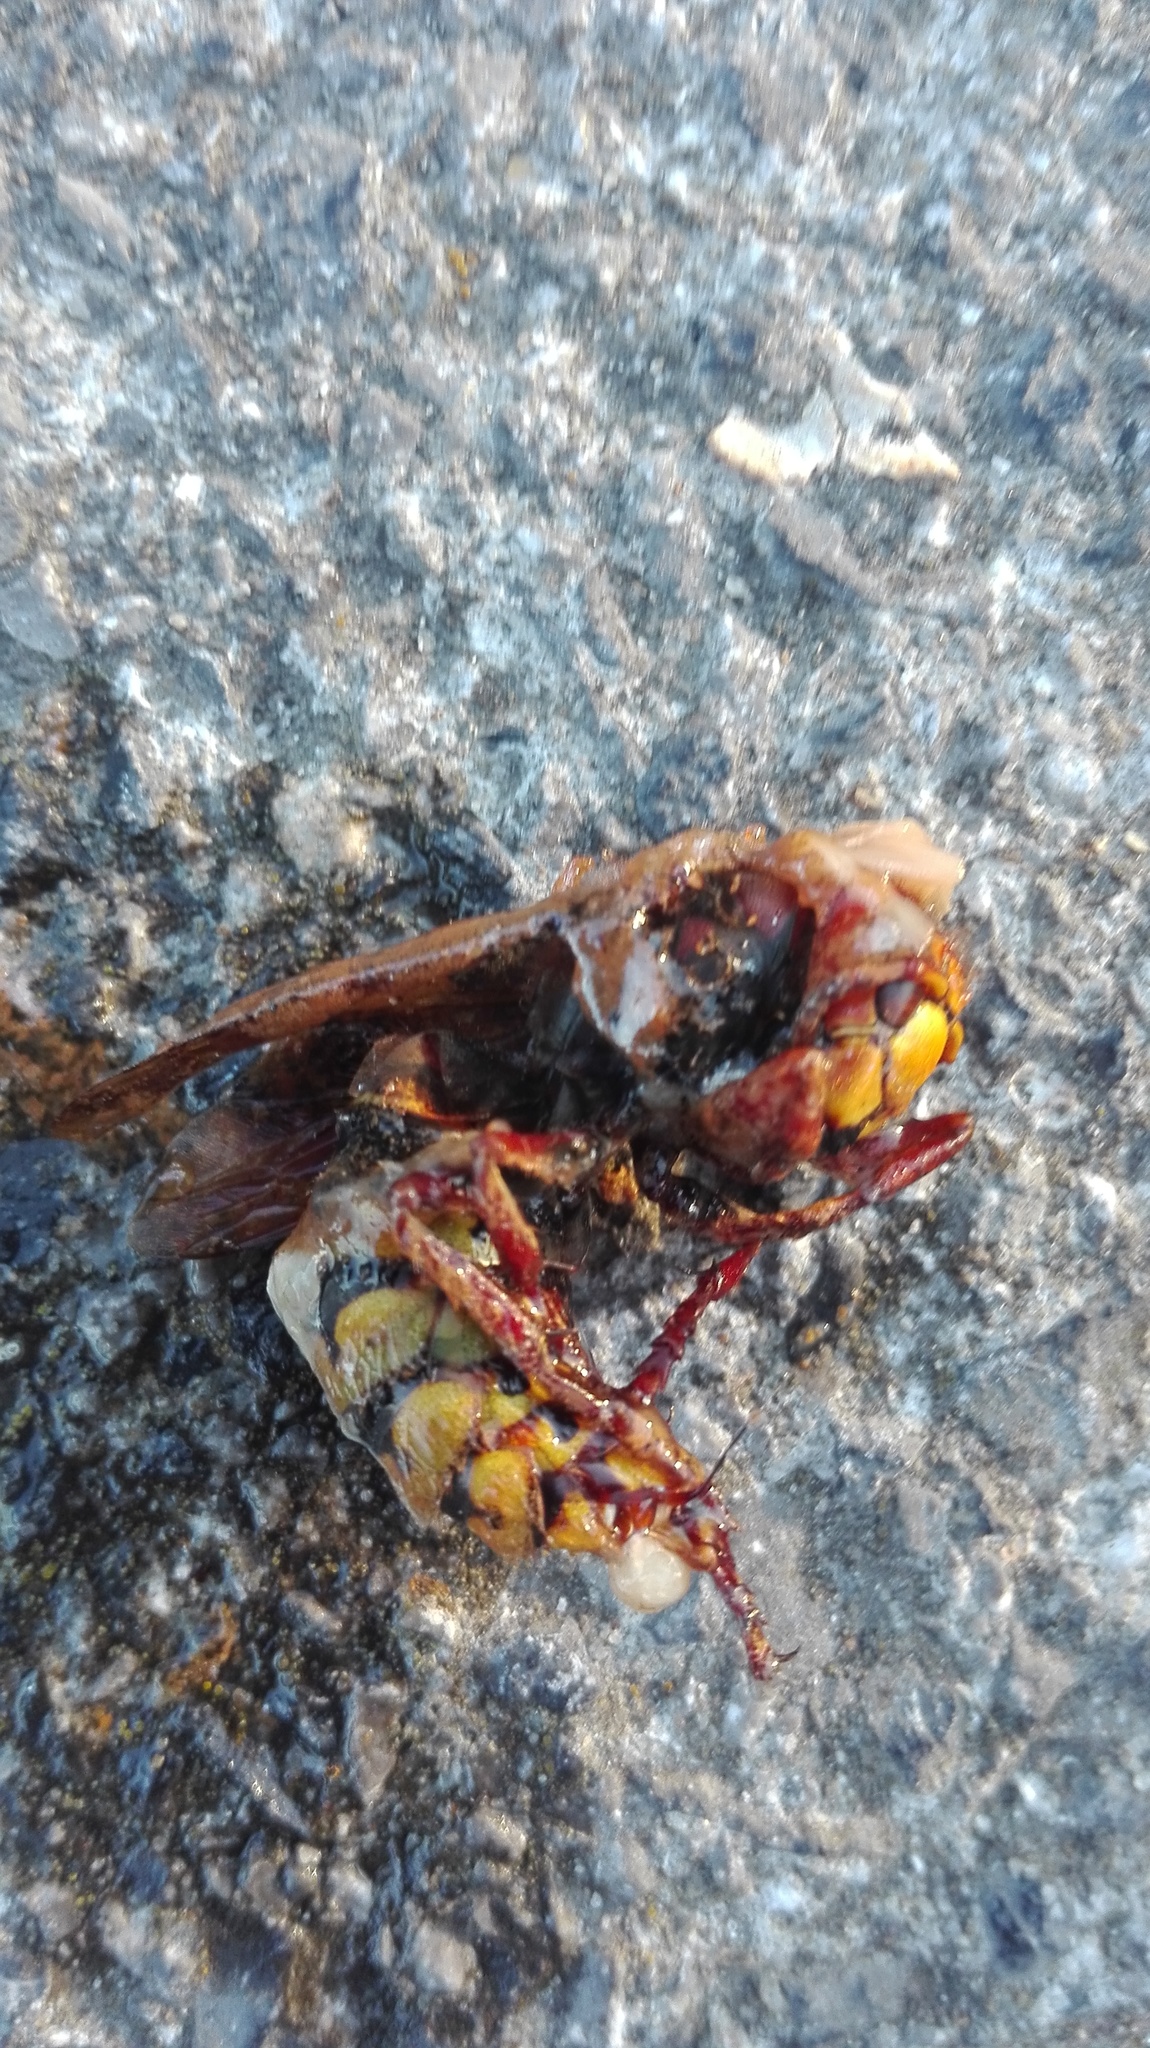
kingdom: Animalia
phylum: Arthropoda
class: Insecta
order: Hymenoptera
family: Vespidae
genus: Vespa
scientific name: Vespa crabro
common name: Hornet
